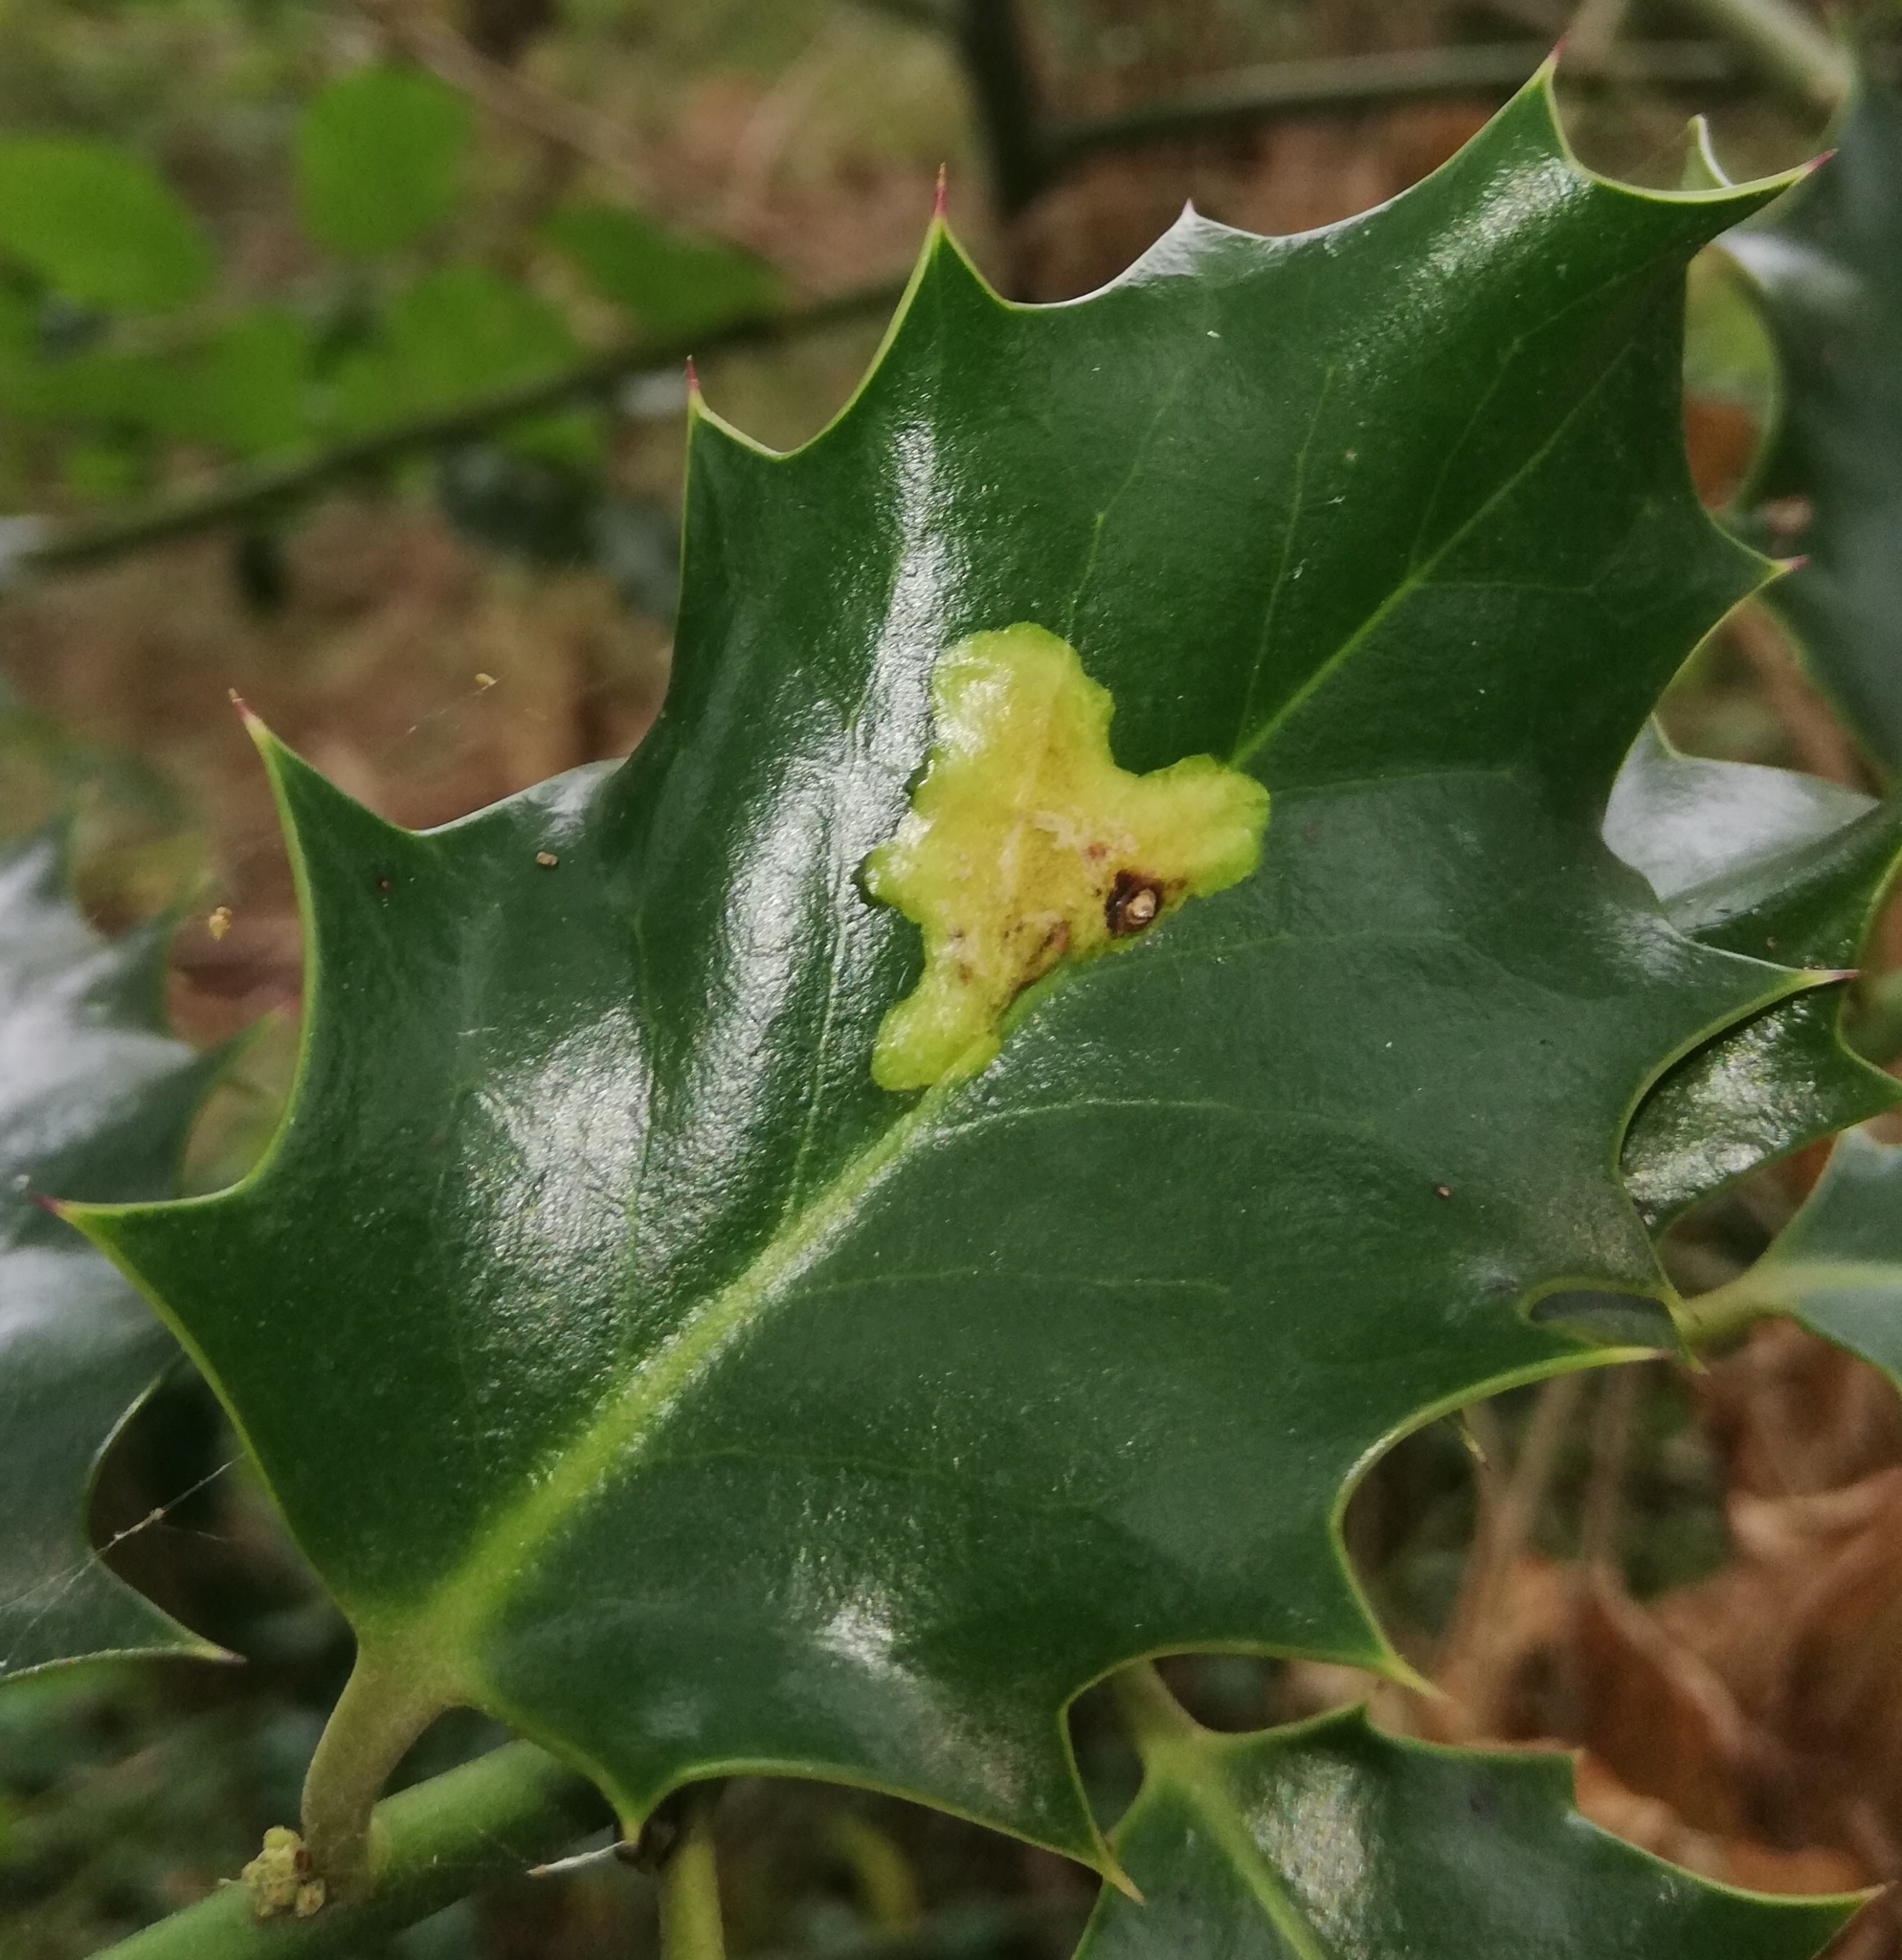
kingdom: Animalia
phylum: Arthropoda
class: Insecta
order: Diptera
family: Agromyzidae
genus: Phytomyza
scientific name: Phytomyza ilicis
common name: Holly leafminer
